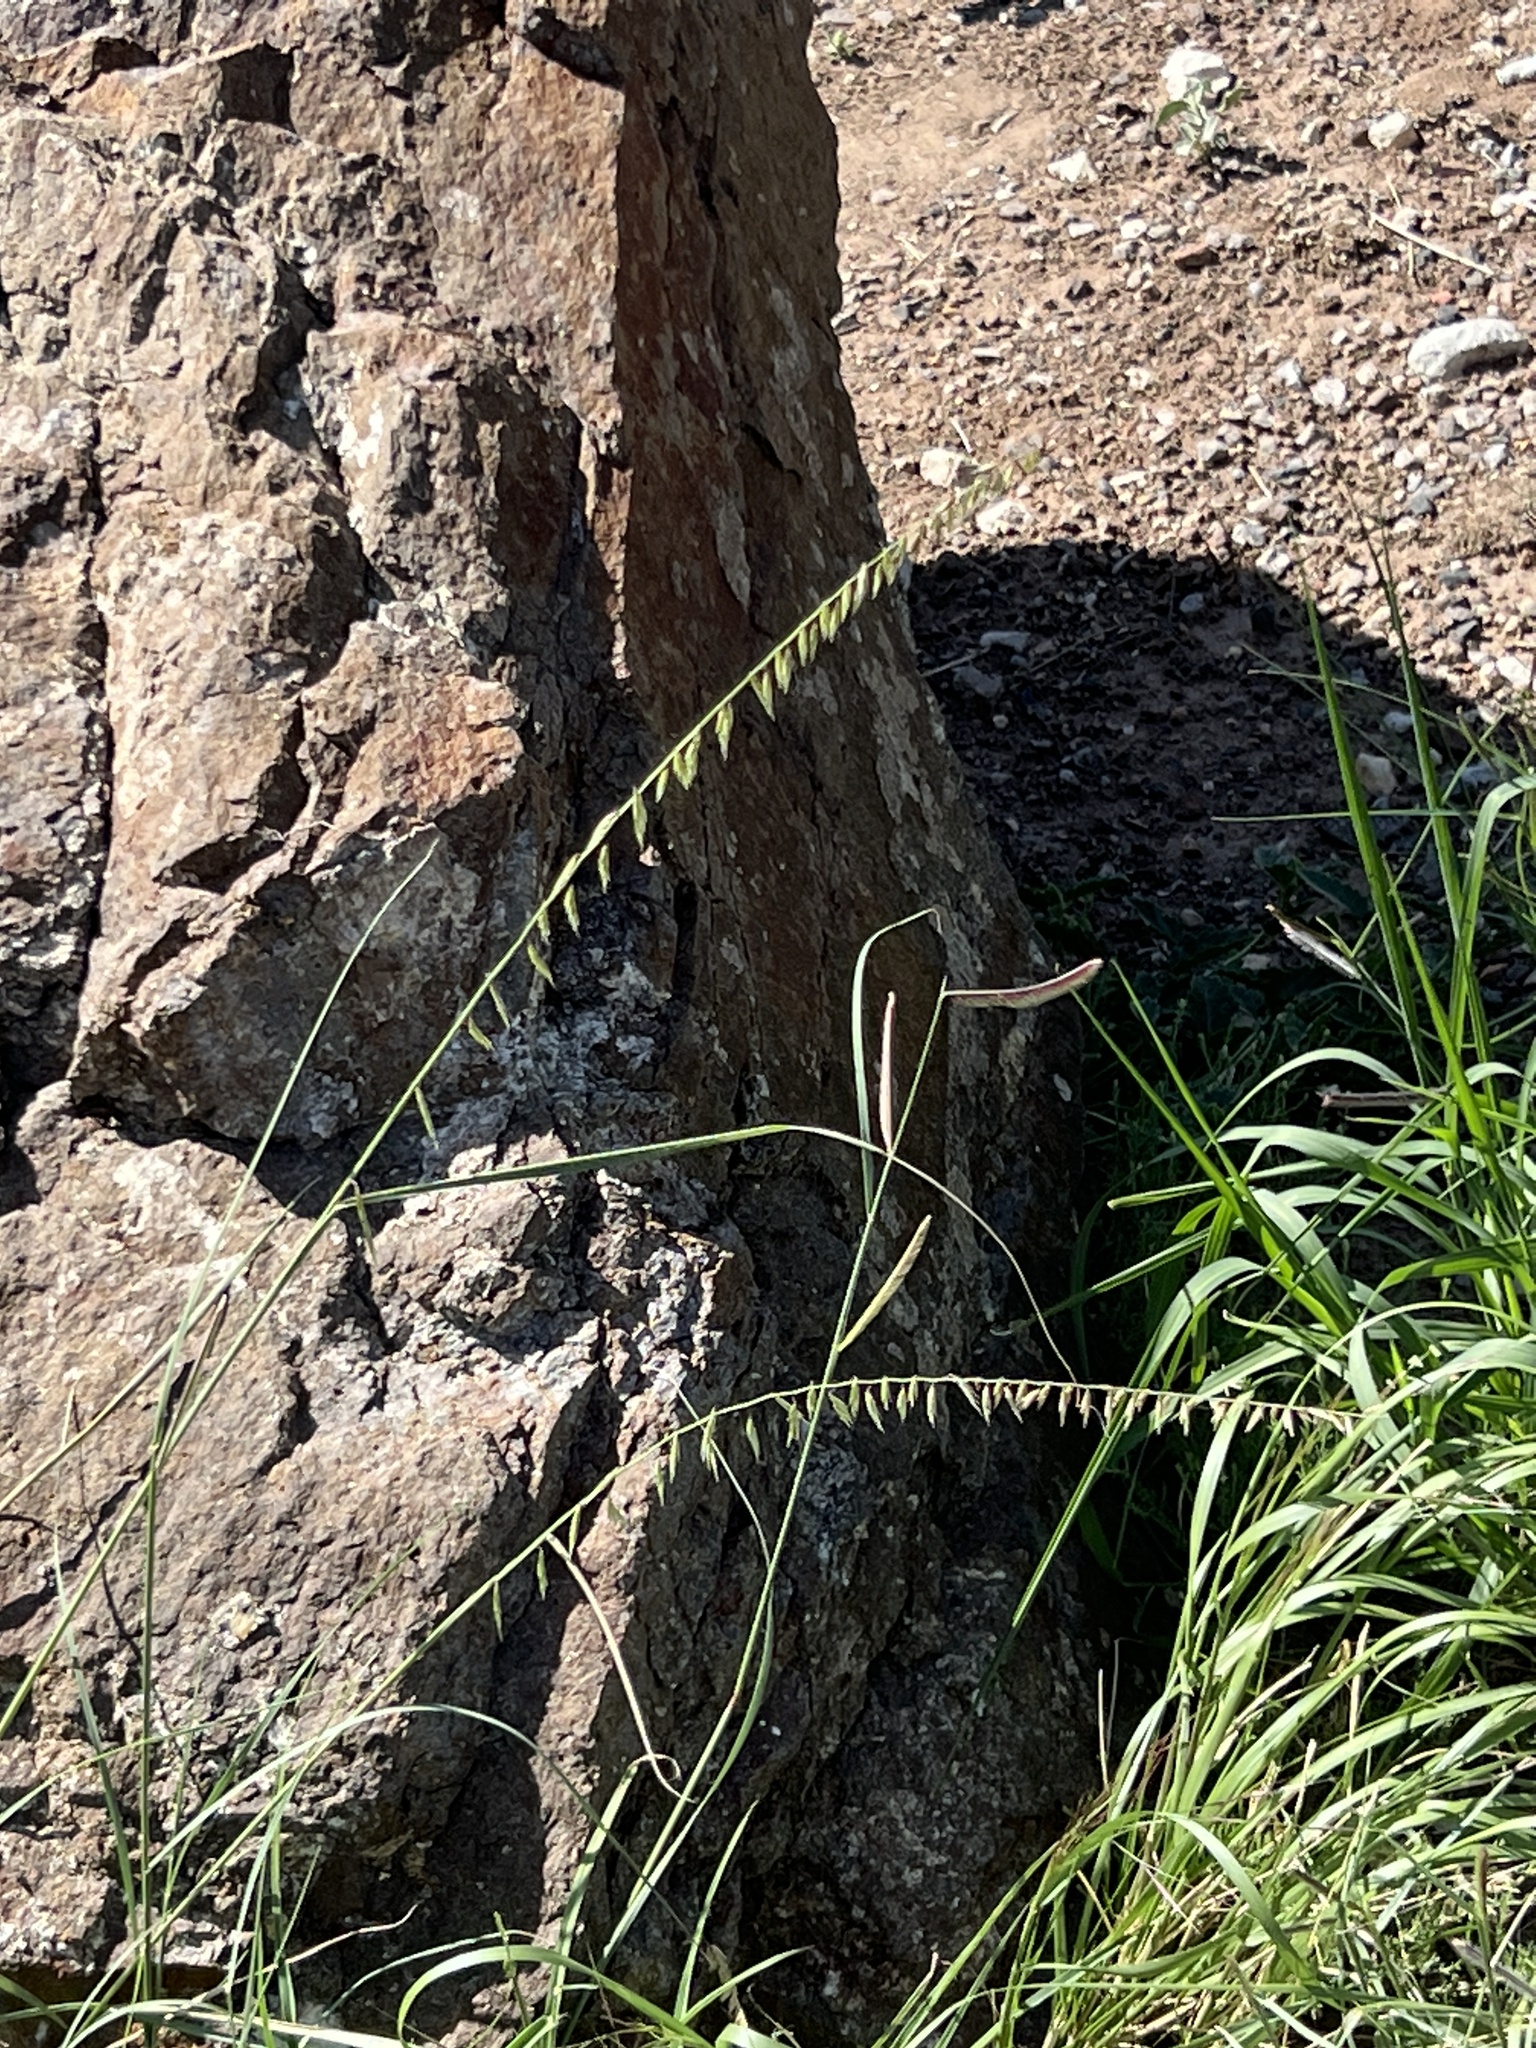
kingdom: Plantae
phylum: Tracheophyta
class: Liliopsida
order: Poales
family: Poaceae
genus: Bouteloua
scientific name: Bouteloua curtipendula
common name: Side-oats grama
